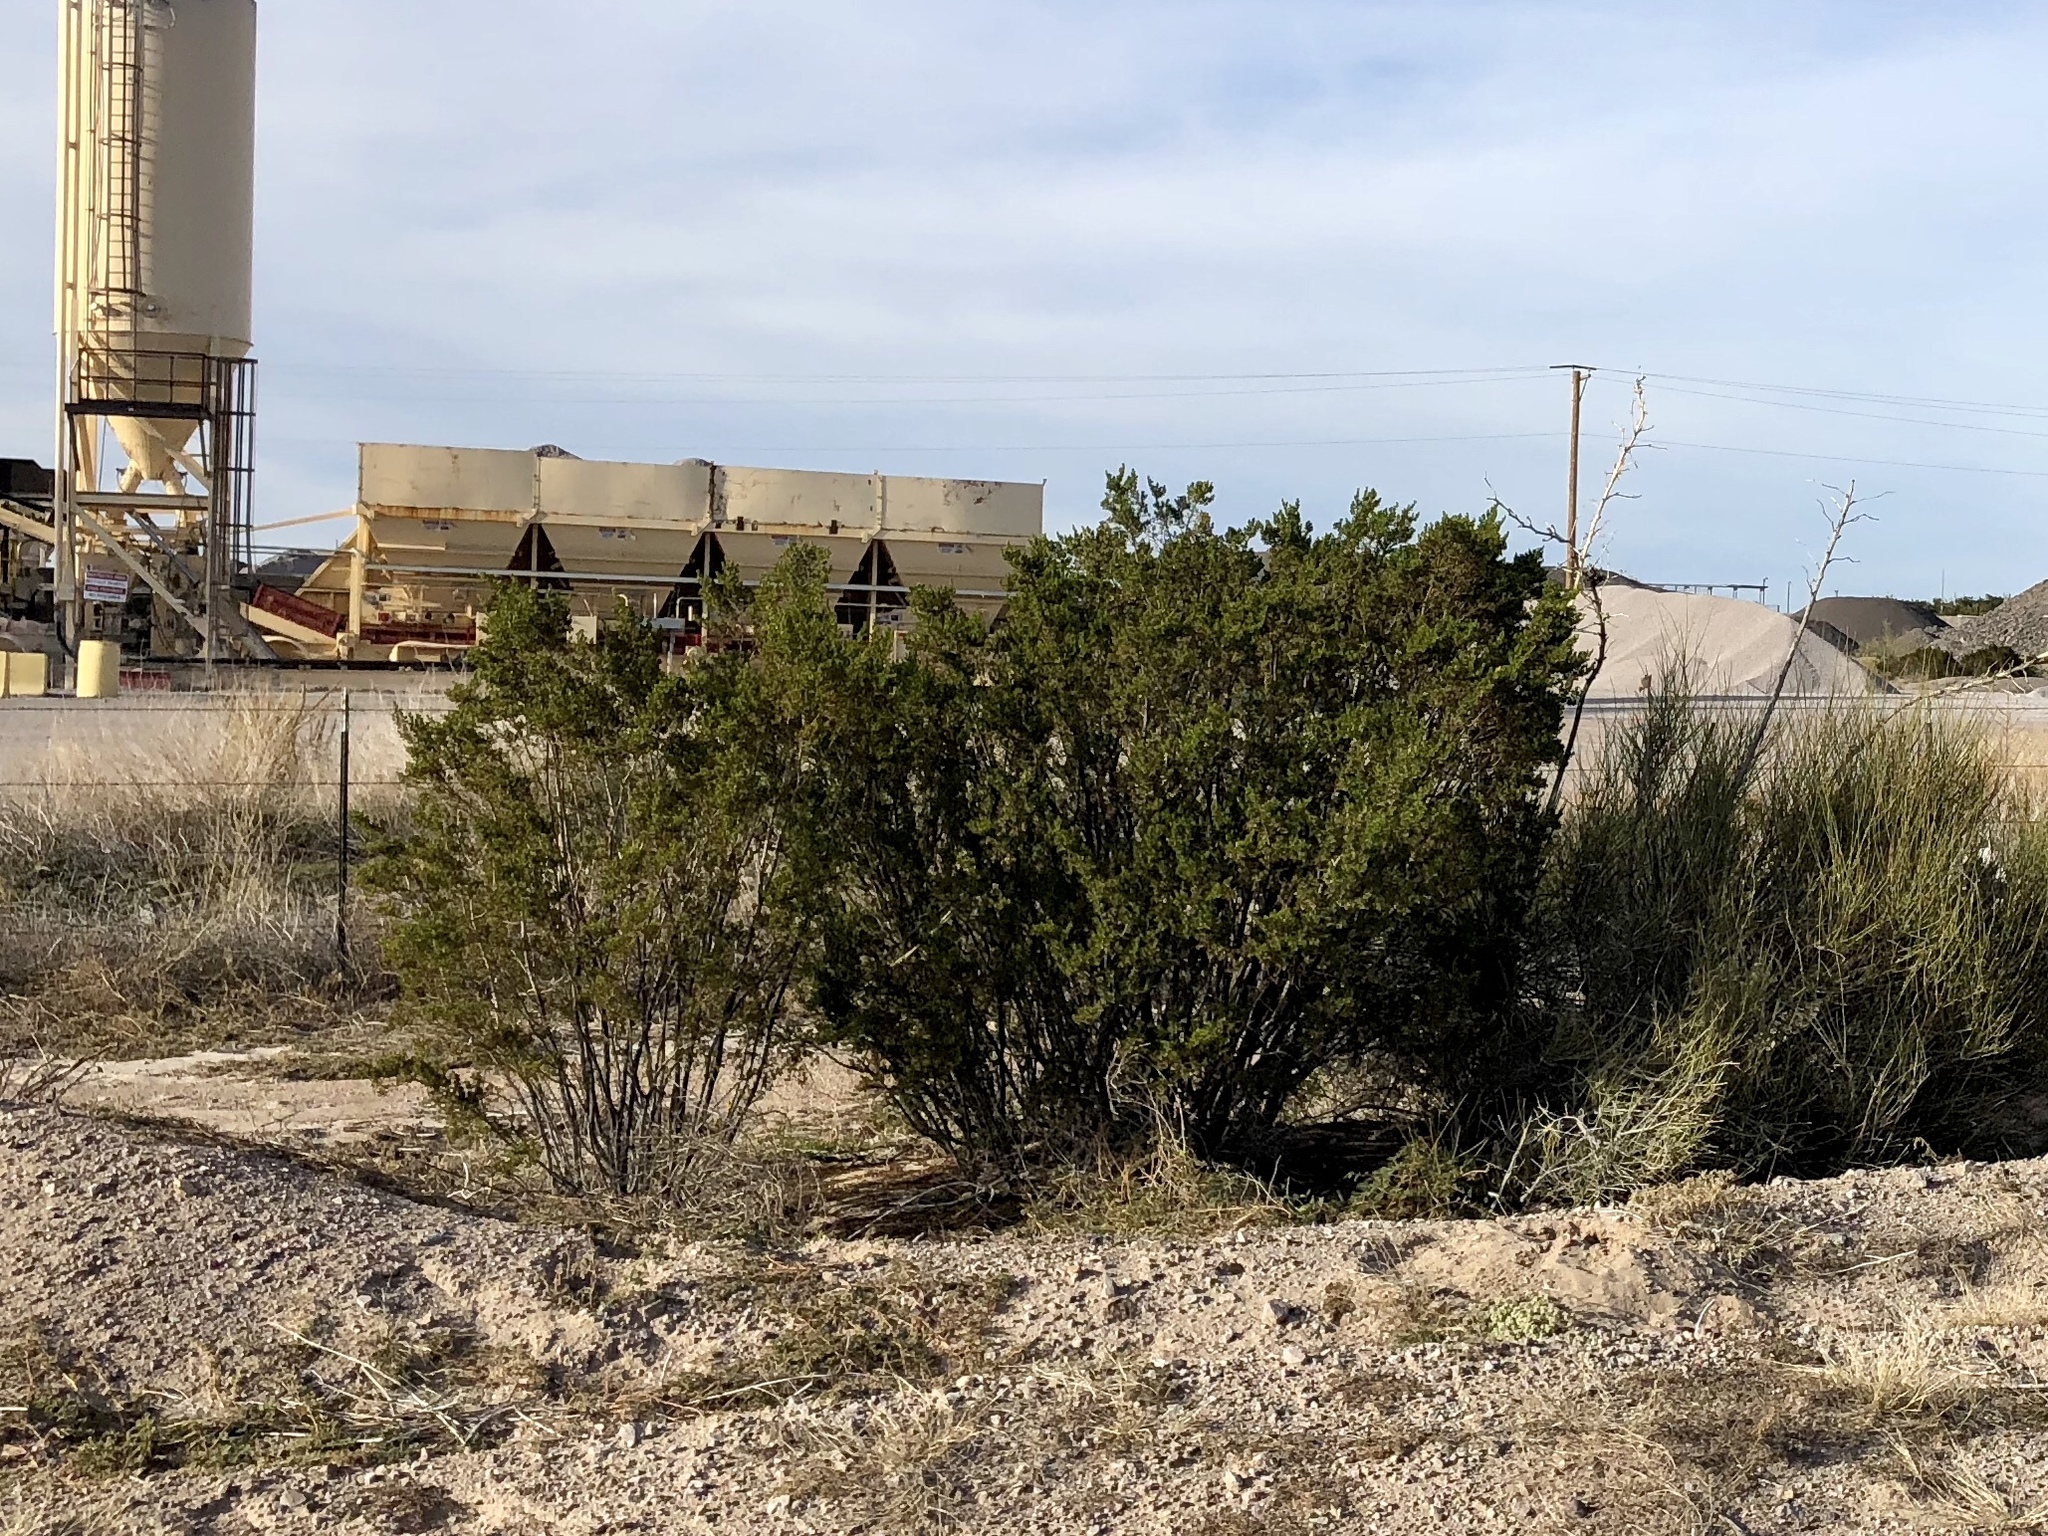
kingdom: Plantae
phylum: Tracheophyta
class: Magnoliopsida
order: Zygophyllales
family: Zygophyllaceae
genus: Larrea
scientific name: Larrea tridentata
